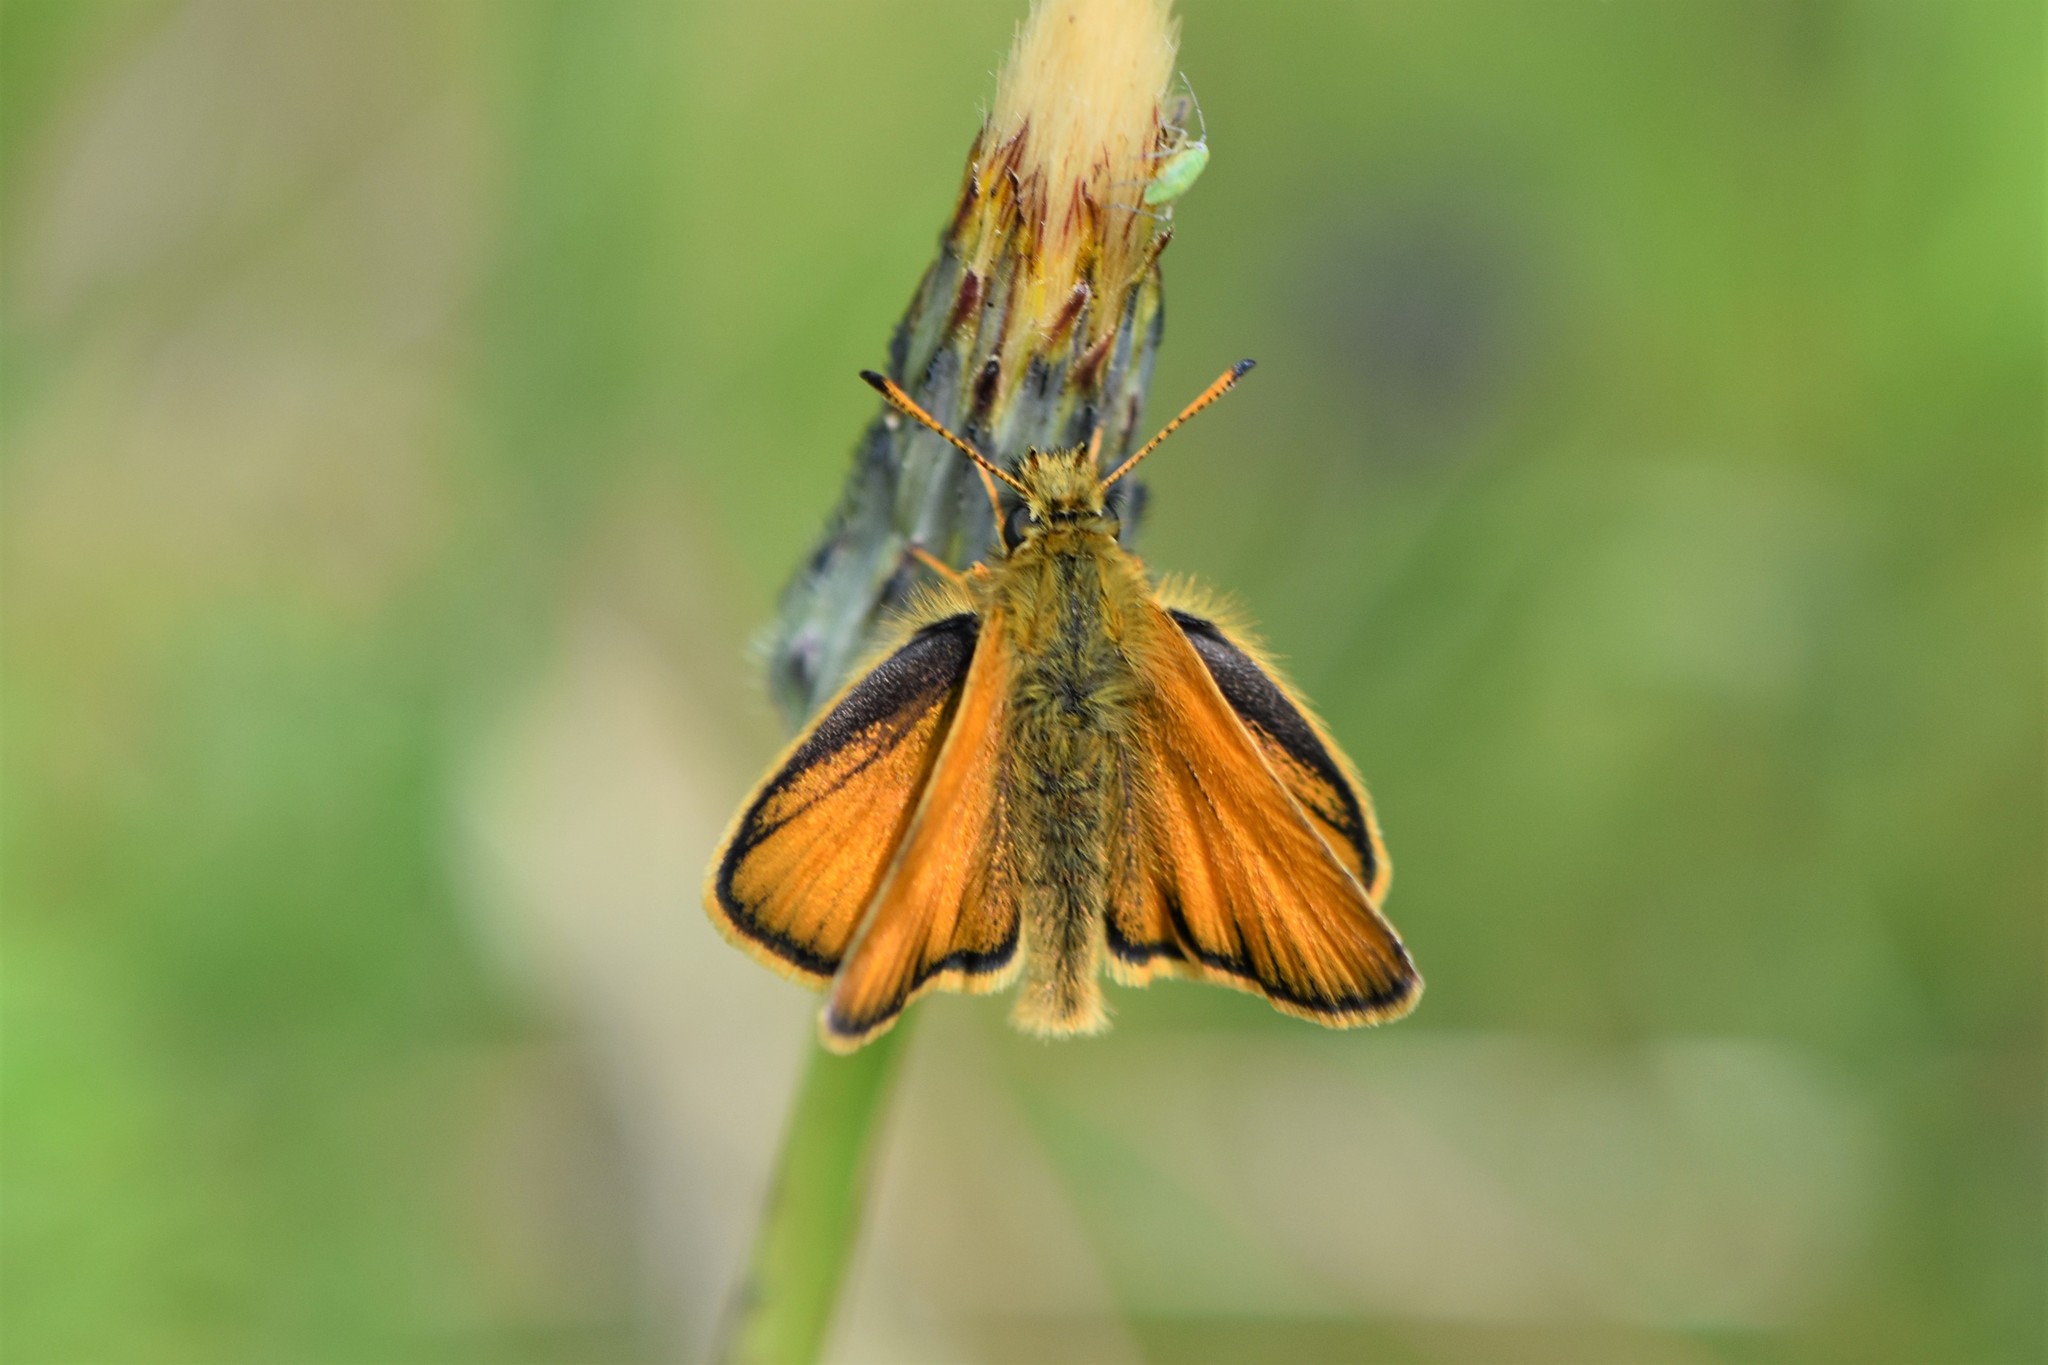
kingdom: Animalia
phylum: Arthropoda
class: Insecta
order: Lepidoptera
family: Hesperiidae
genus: Thymelicus
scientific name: Thymelicus lineola
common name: Essex skipper
